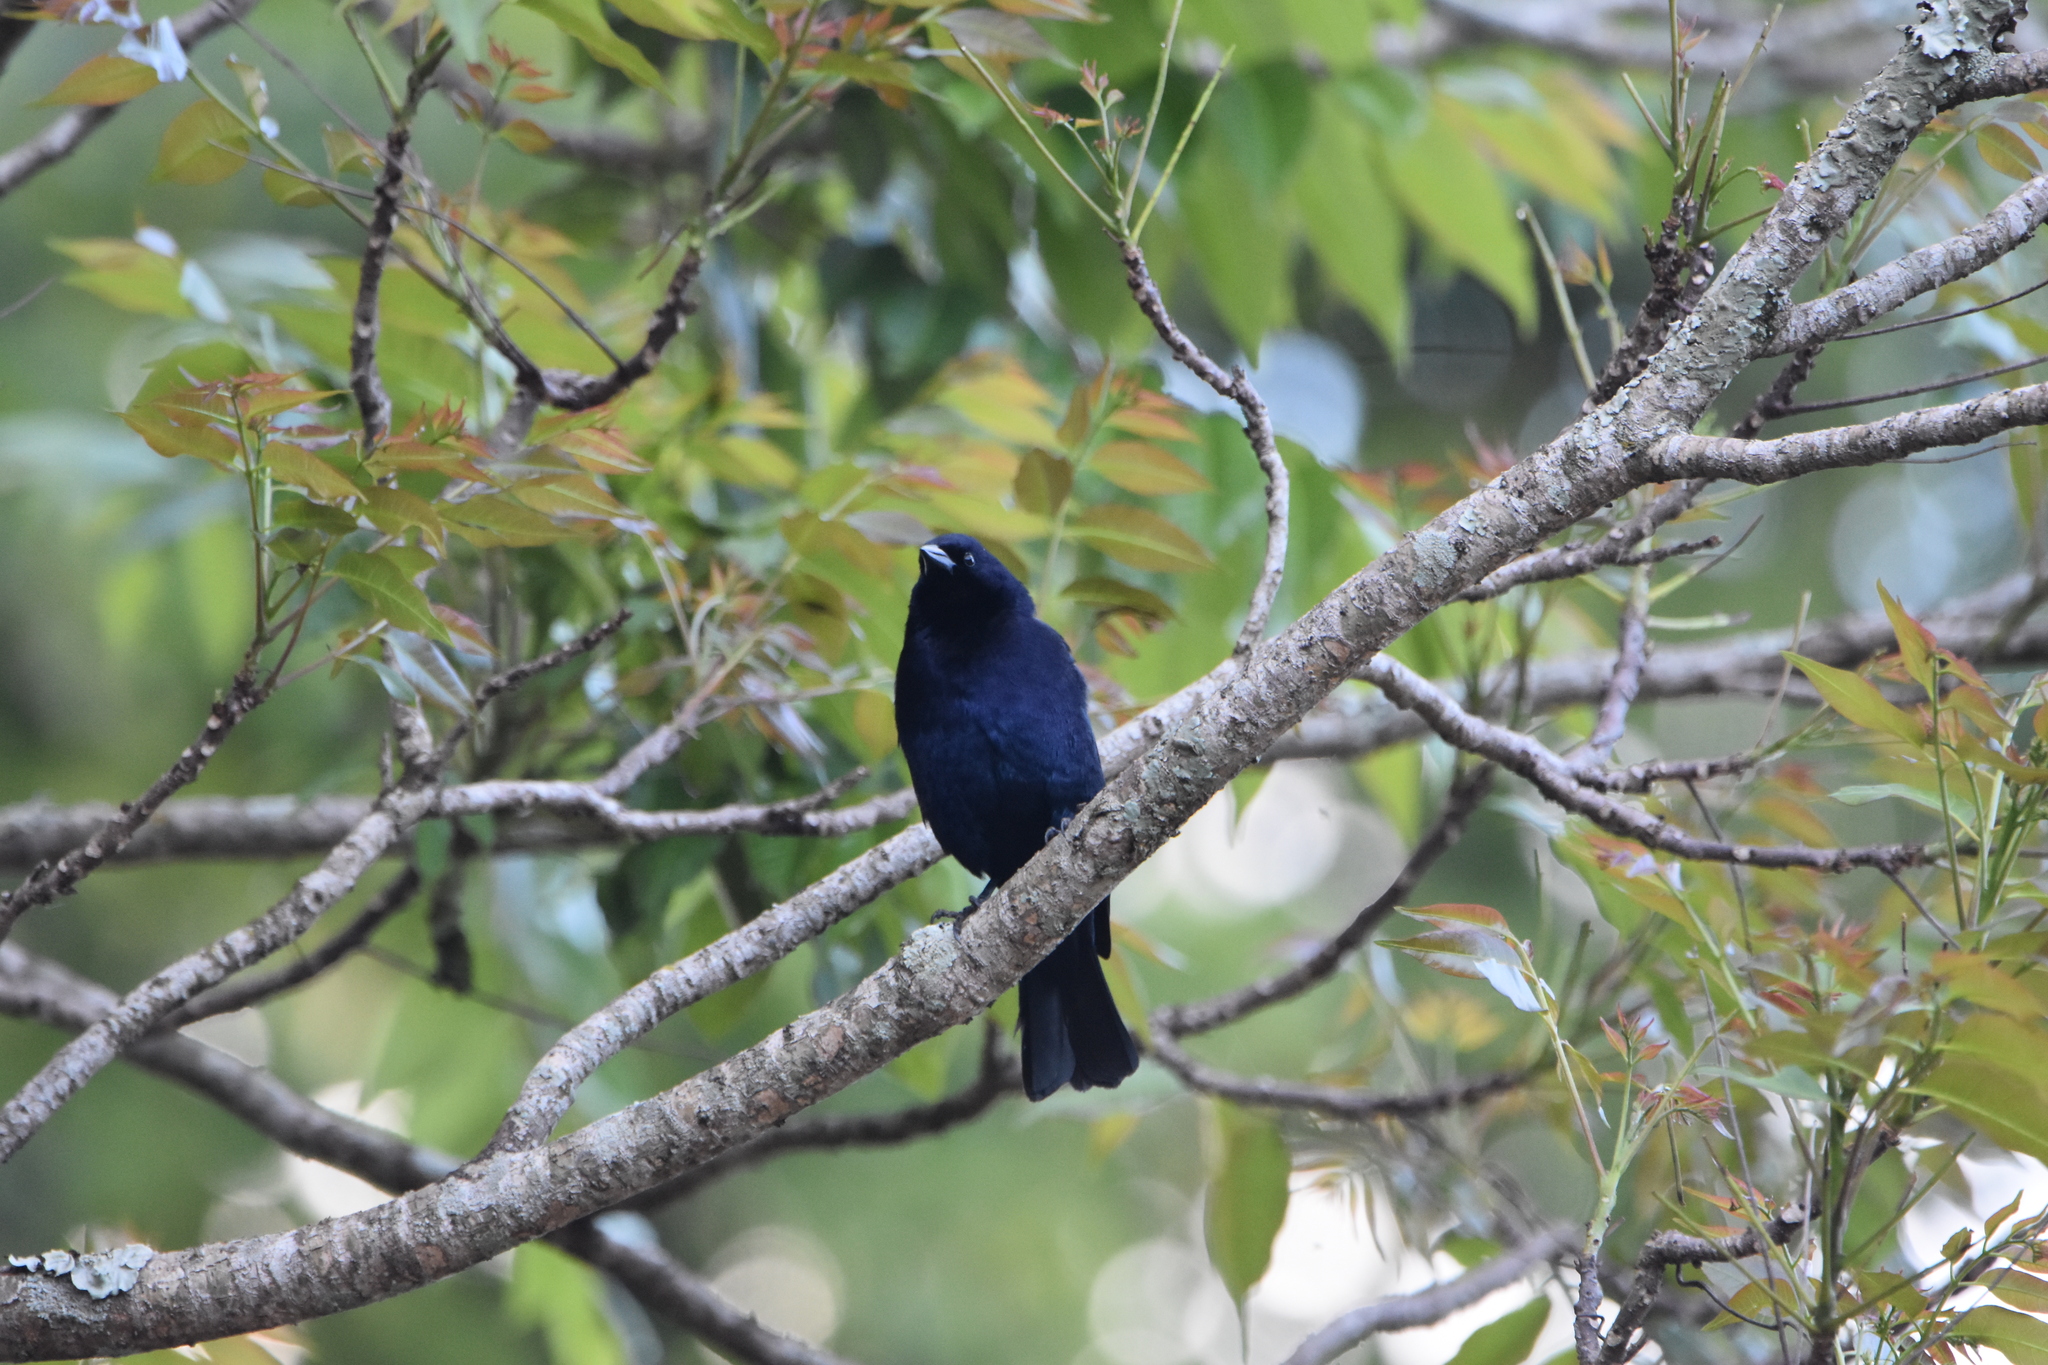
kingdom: Animalia
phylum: Chordata
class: Aves
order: Passeriformes
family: Icteridae
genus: Molothrus
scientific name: Molothrus bonariensis
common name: Shiny cowbird
